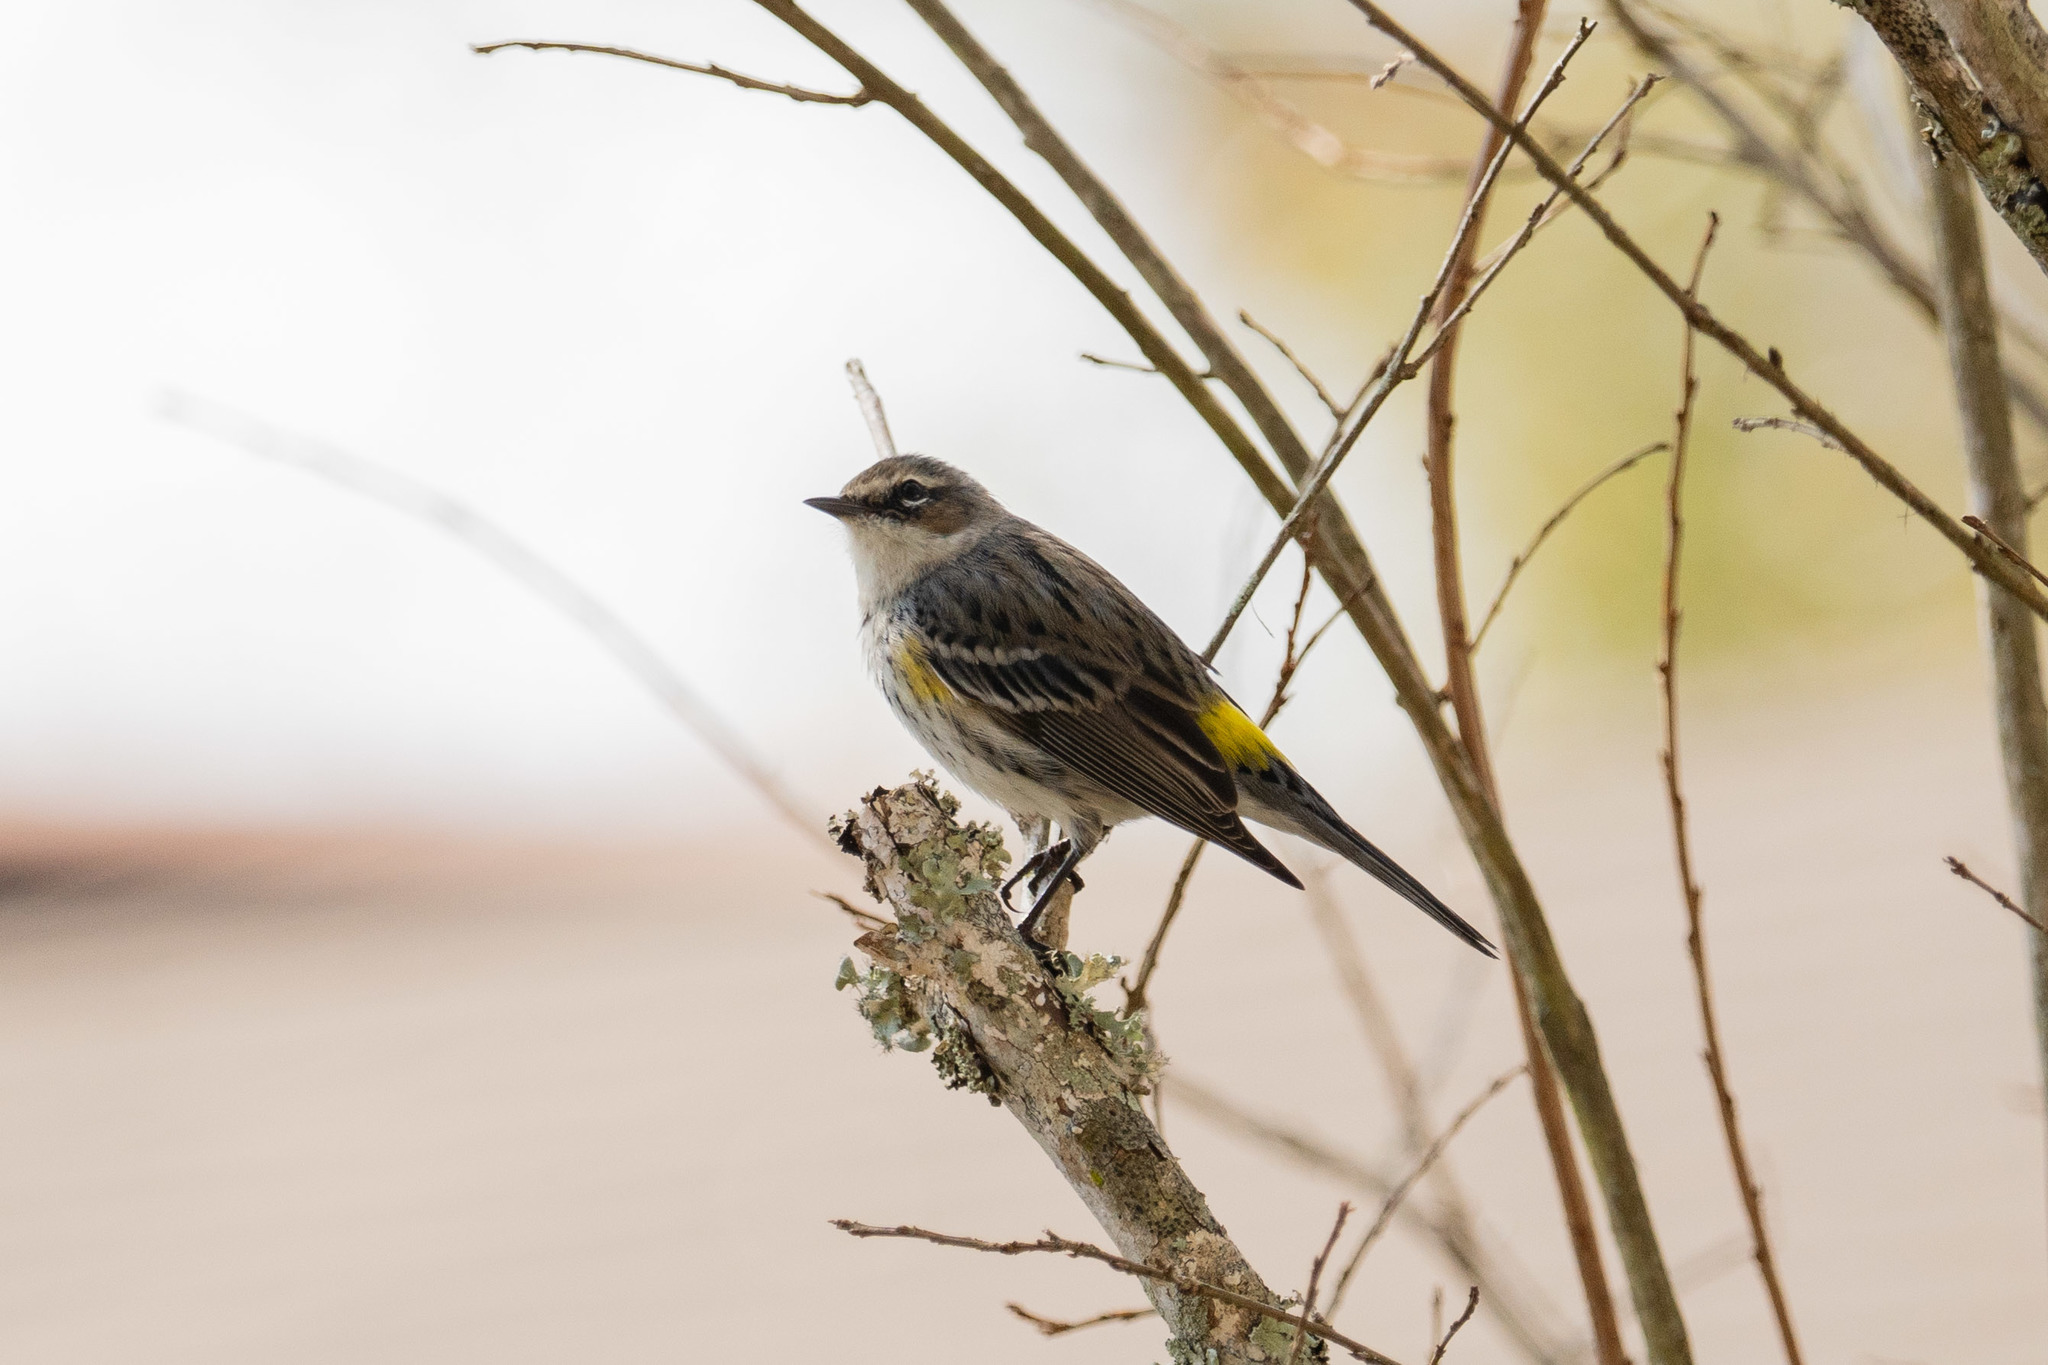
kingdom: Animalia
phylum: Chordata
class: Aves
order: Passeriformes
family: Parulidae
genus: Setophaga
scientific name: Setophaga coronata
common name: Myrtle warbler
